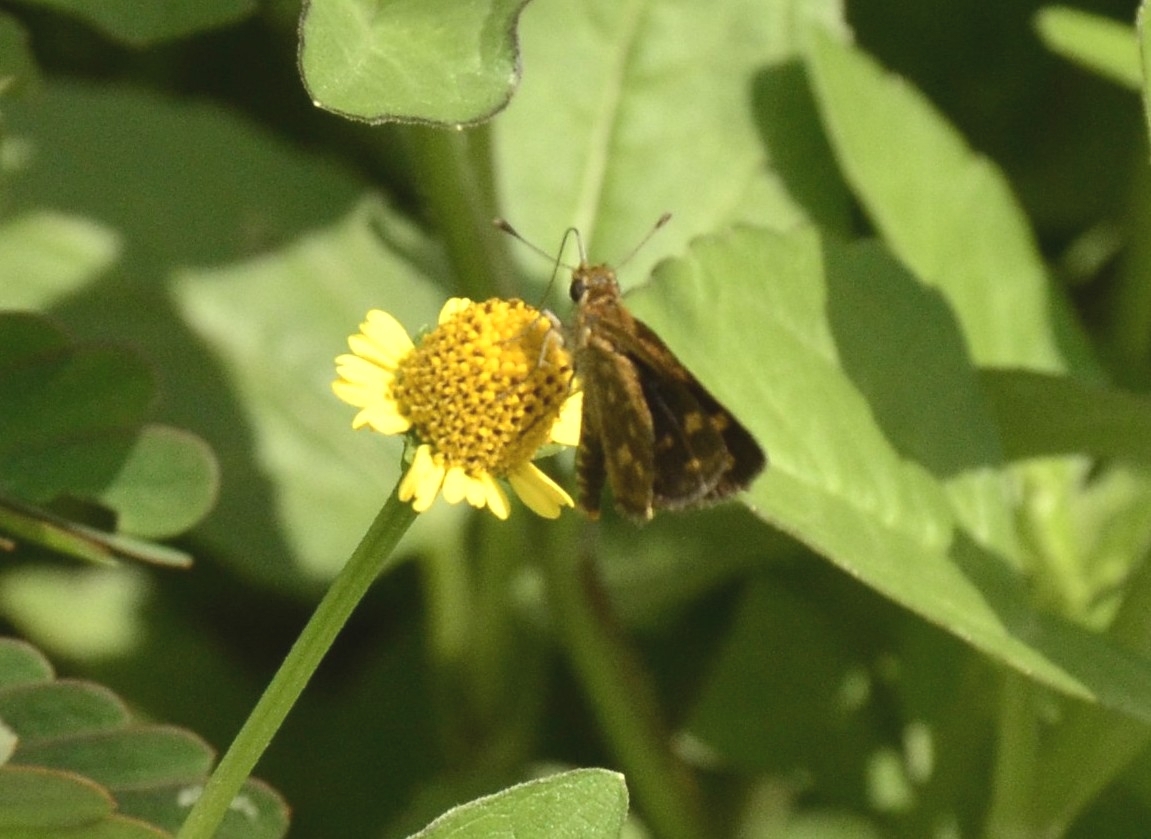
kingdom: Animalia
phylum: Arthropoda
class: Insecta
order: Lepidoptera
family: Hesperiidae
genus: Taractrocera
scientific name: Taractrocera ceramas
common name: Tamil grass dart
